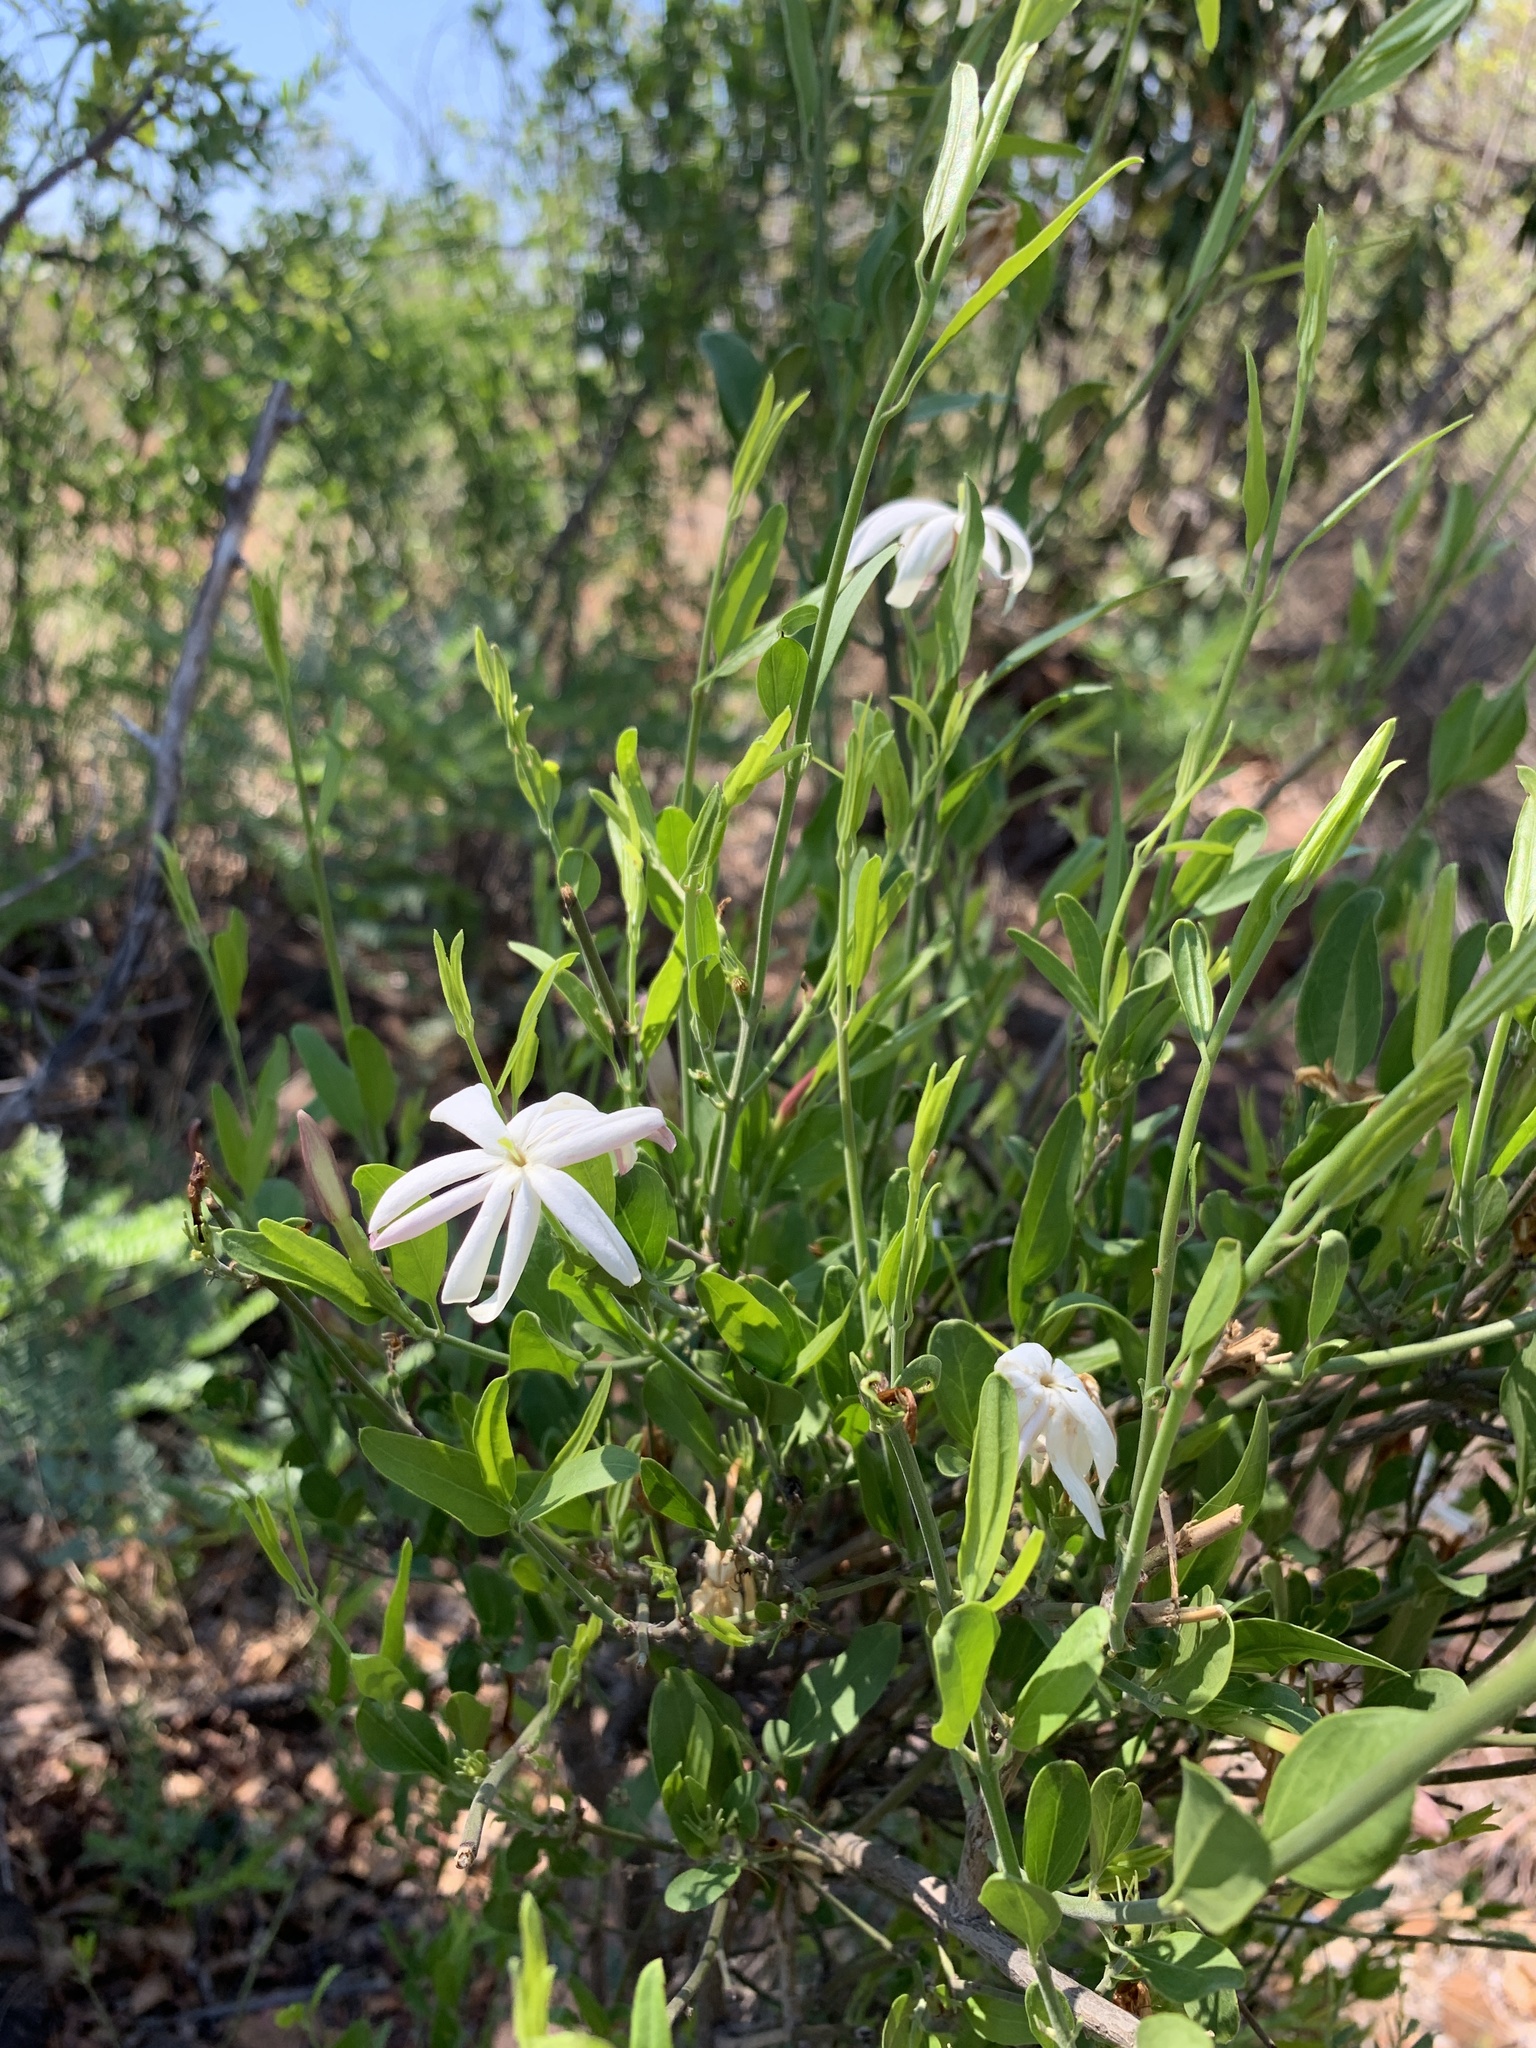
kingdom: Plantae
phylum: Tracheophyta
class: Magnoliopsida
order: Lamiales
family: Oleaceae
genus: Jasminum
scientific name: Jasminum multipartitum
